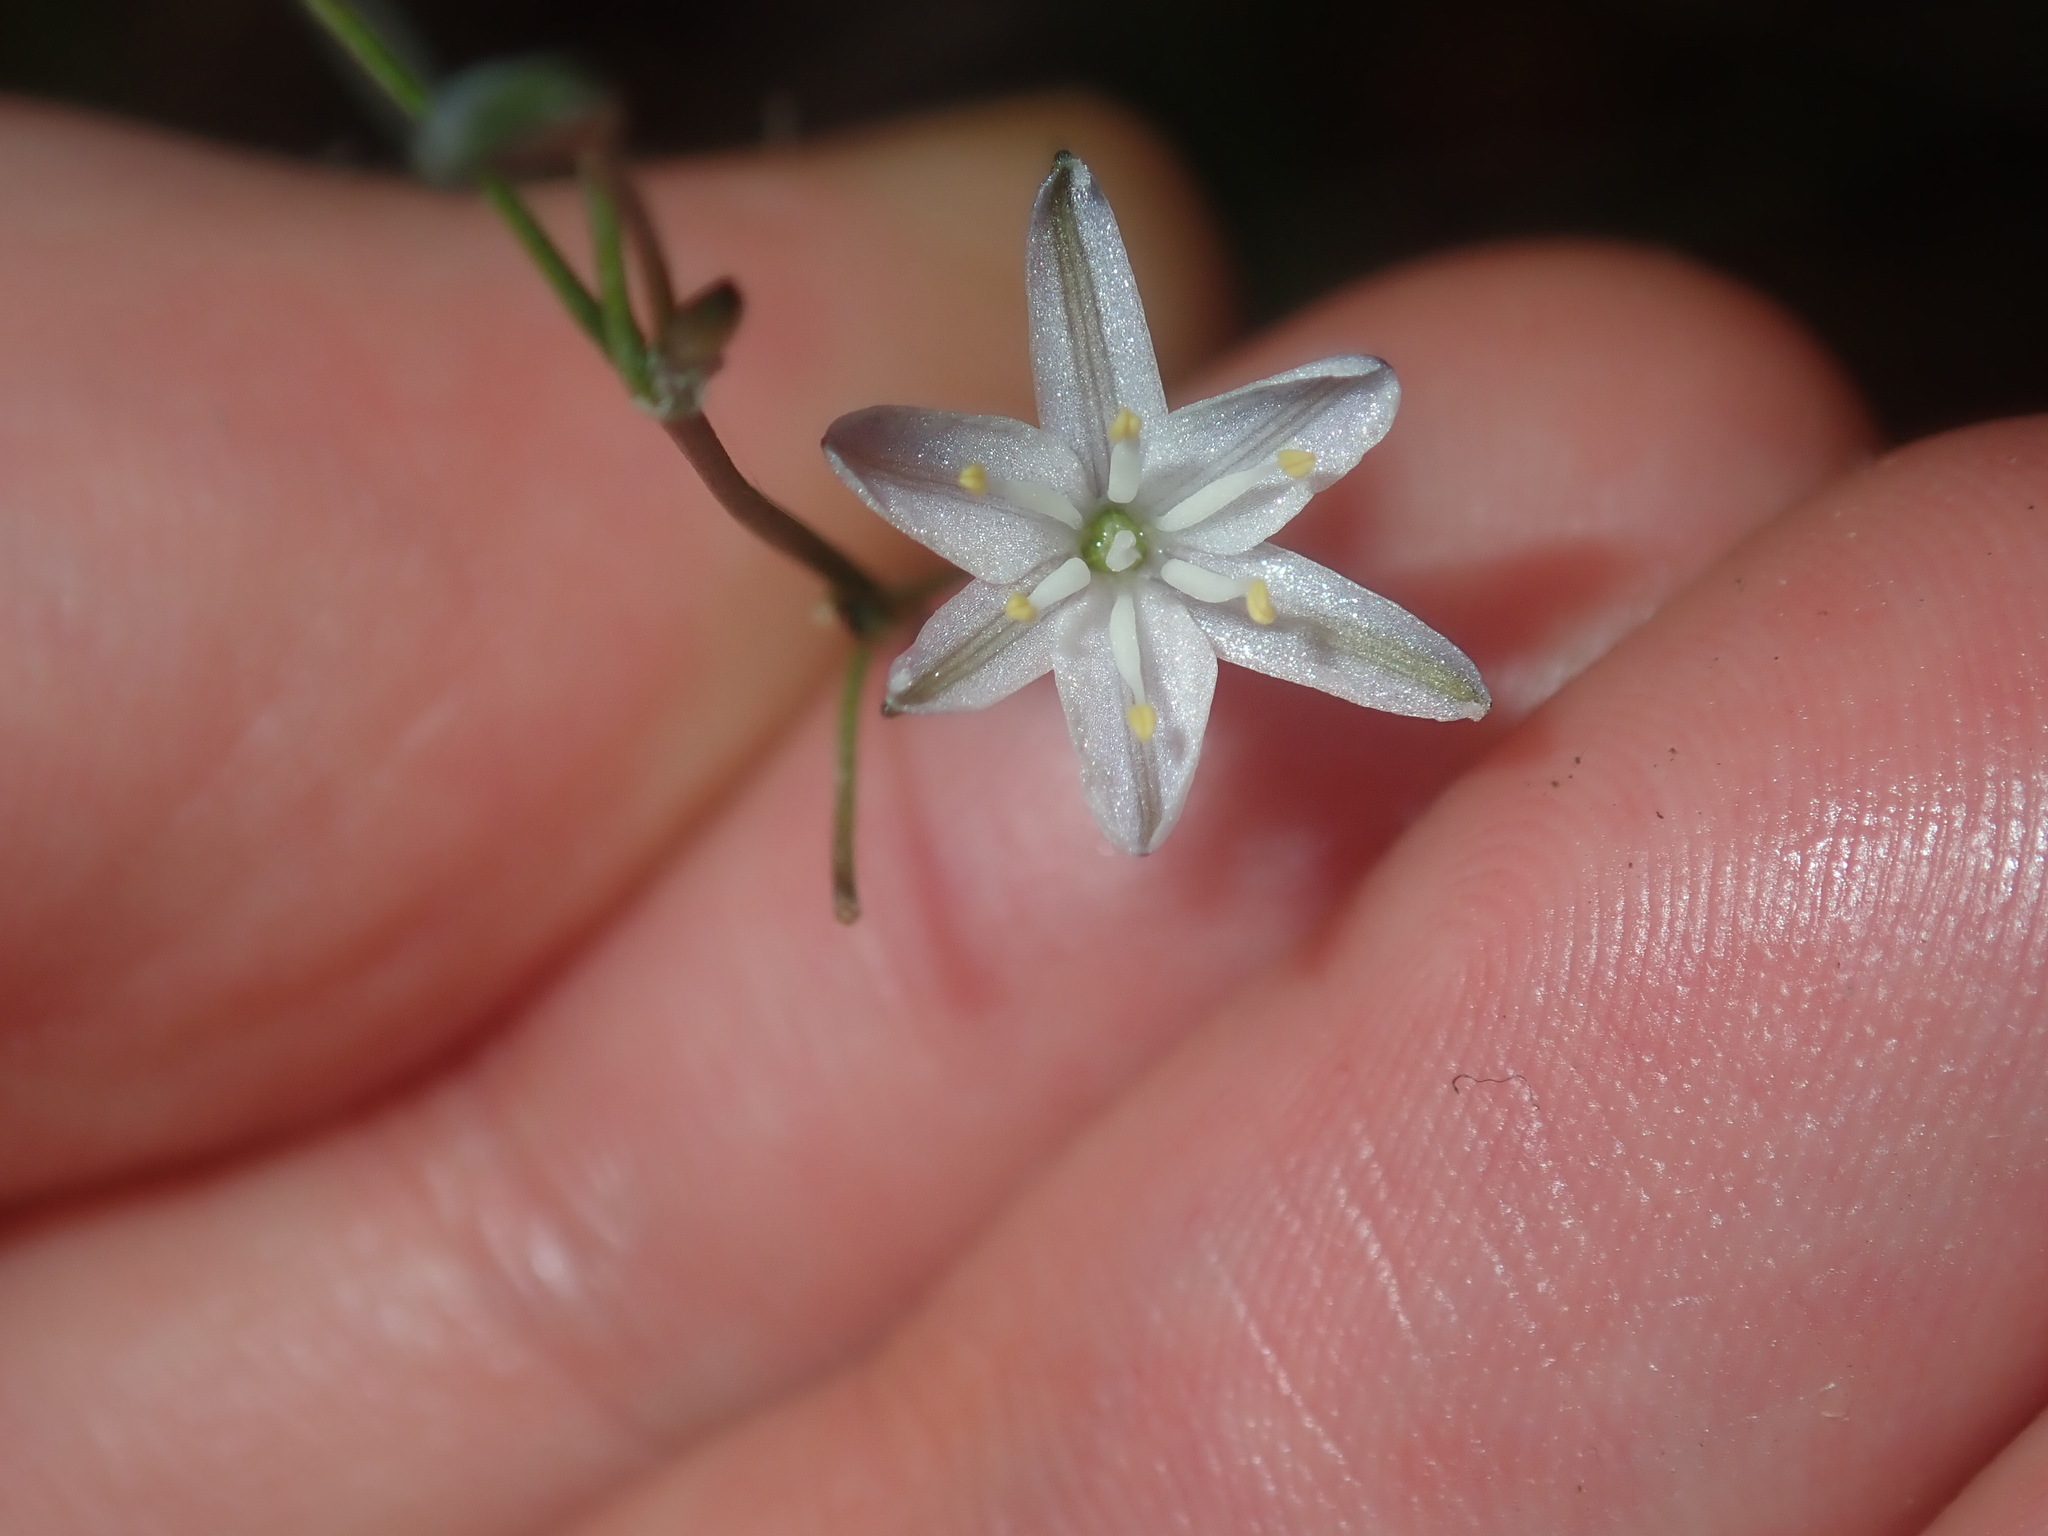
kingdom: Plantae
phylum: Tracheophyta
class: Liliopsida
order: Asparagales
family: Asphodelaceae
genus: Caesia
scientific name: Caesia parviflora
